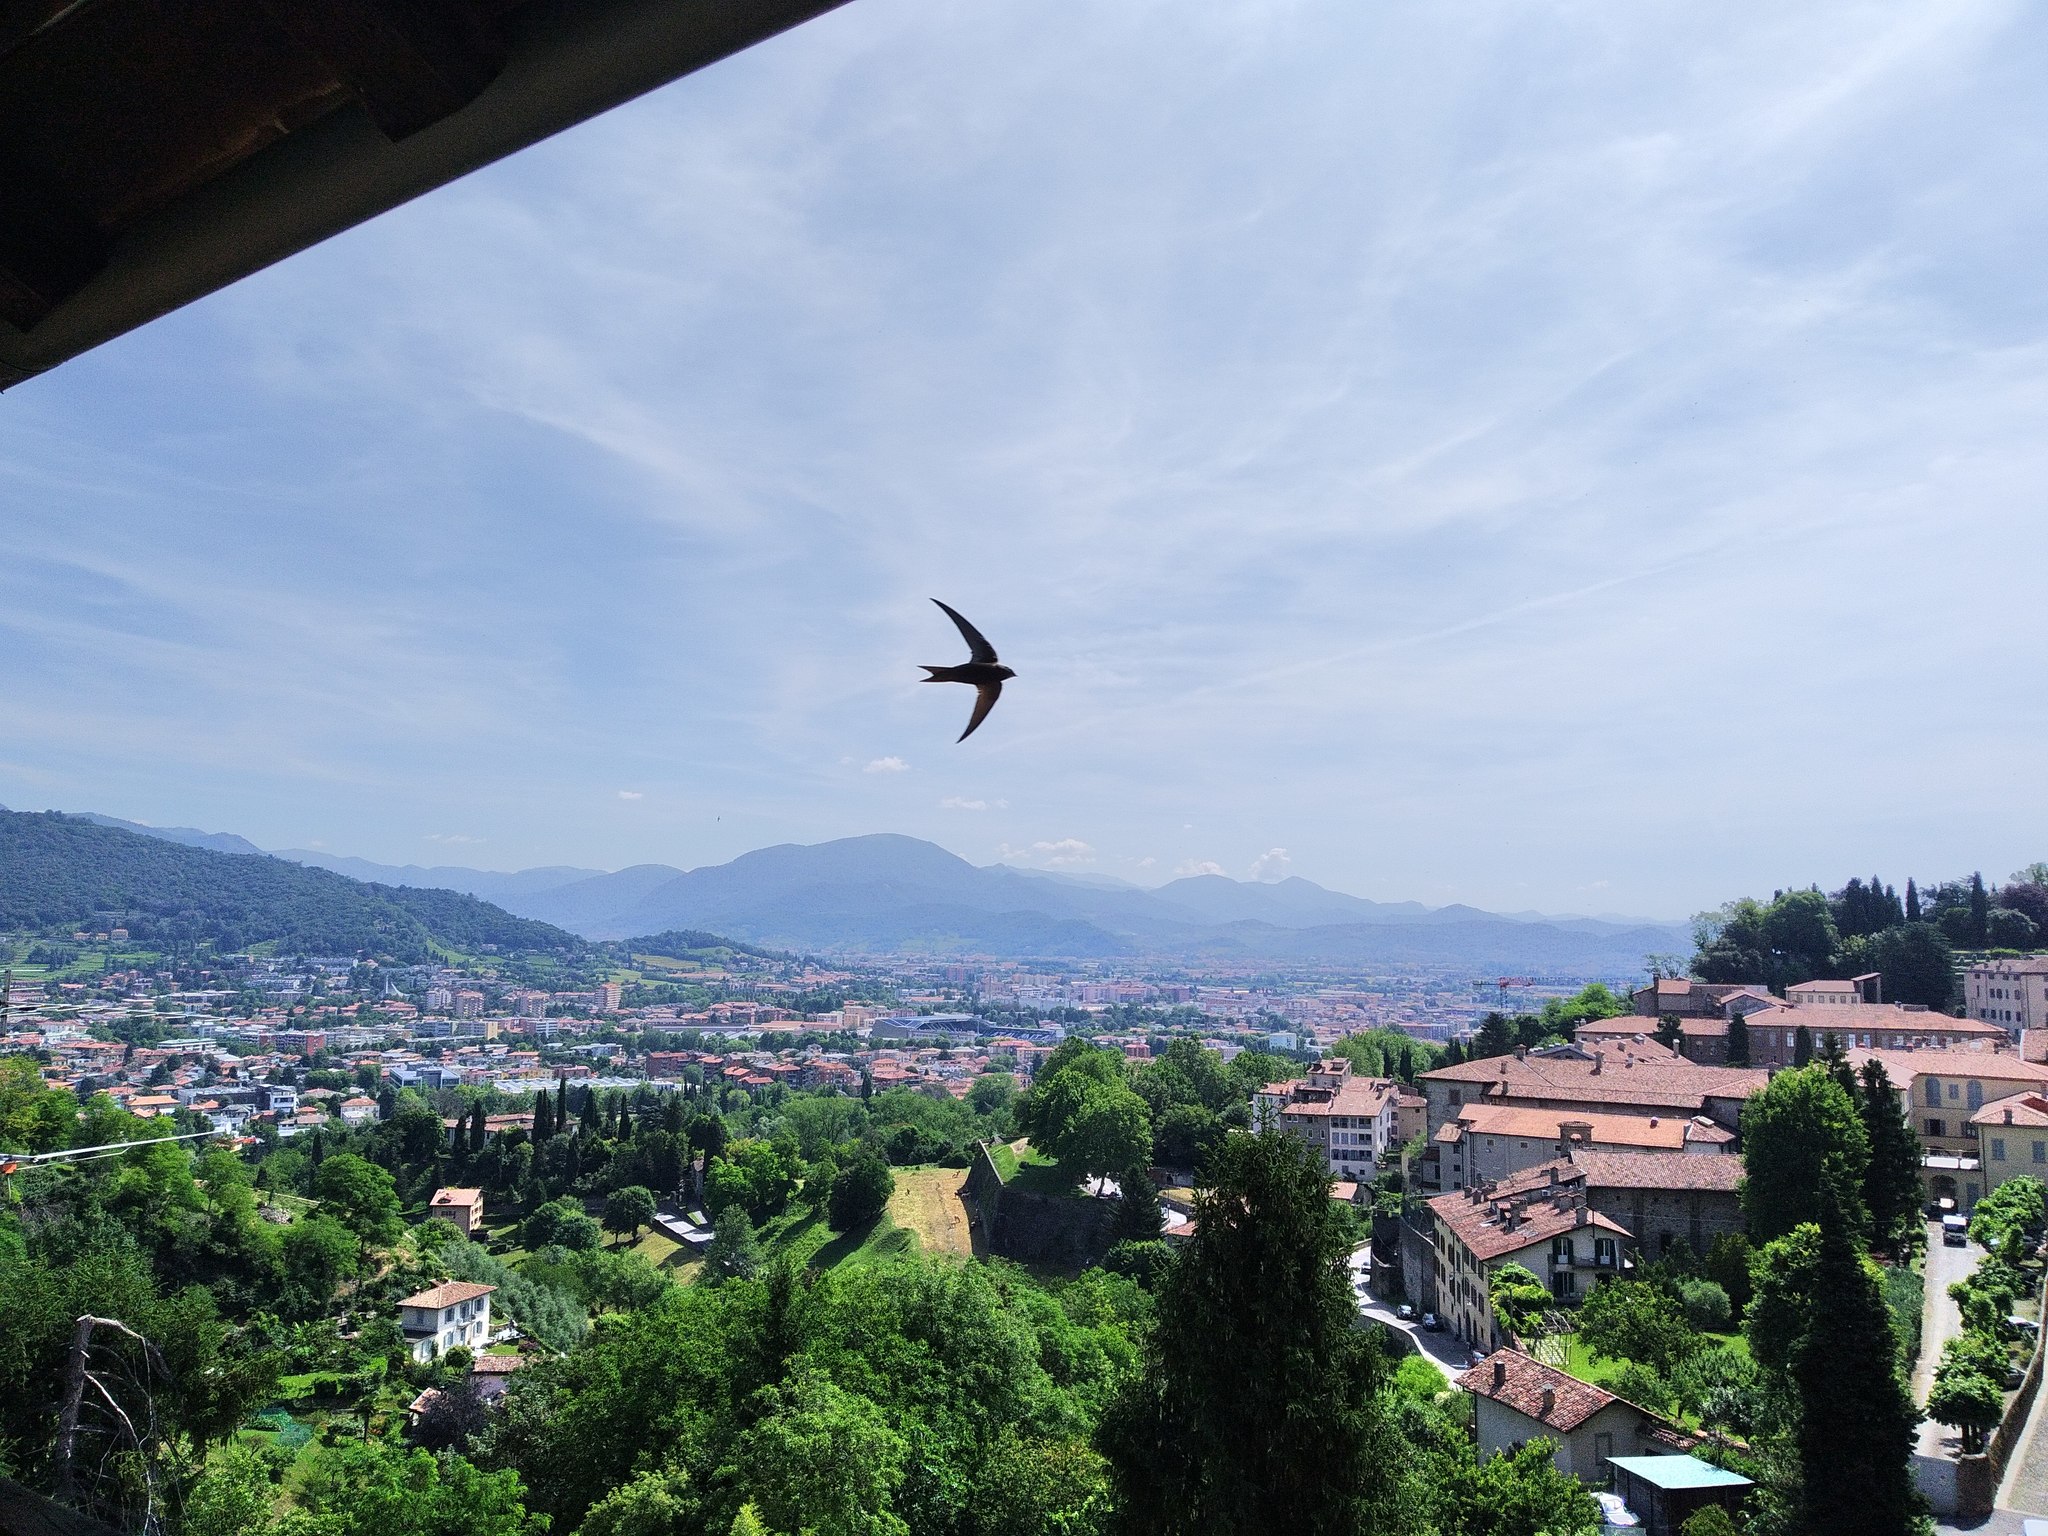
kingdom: Animalia
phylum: Chordata
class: Aves
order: Apodiformes
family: Apodidae
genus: Apus
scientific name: Apus apus
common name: Common swift
